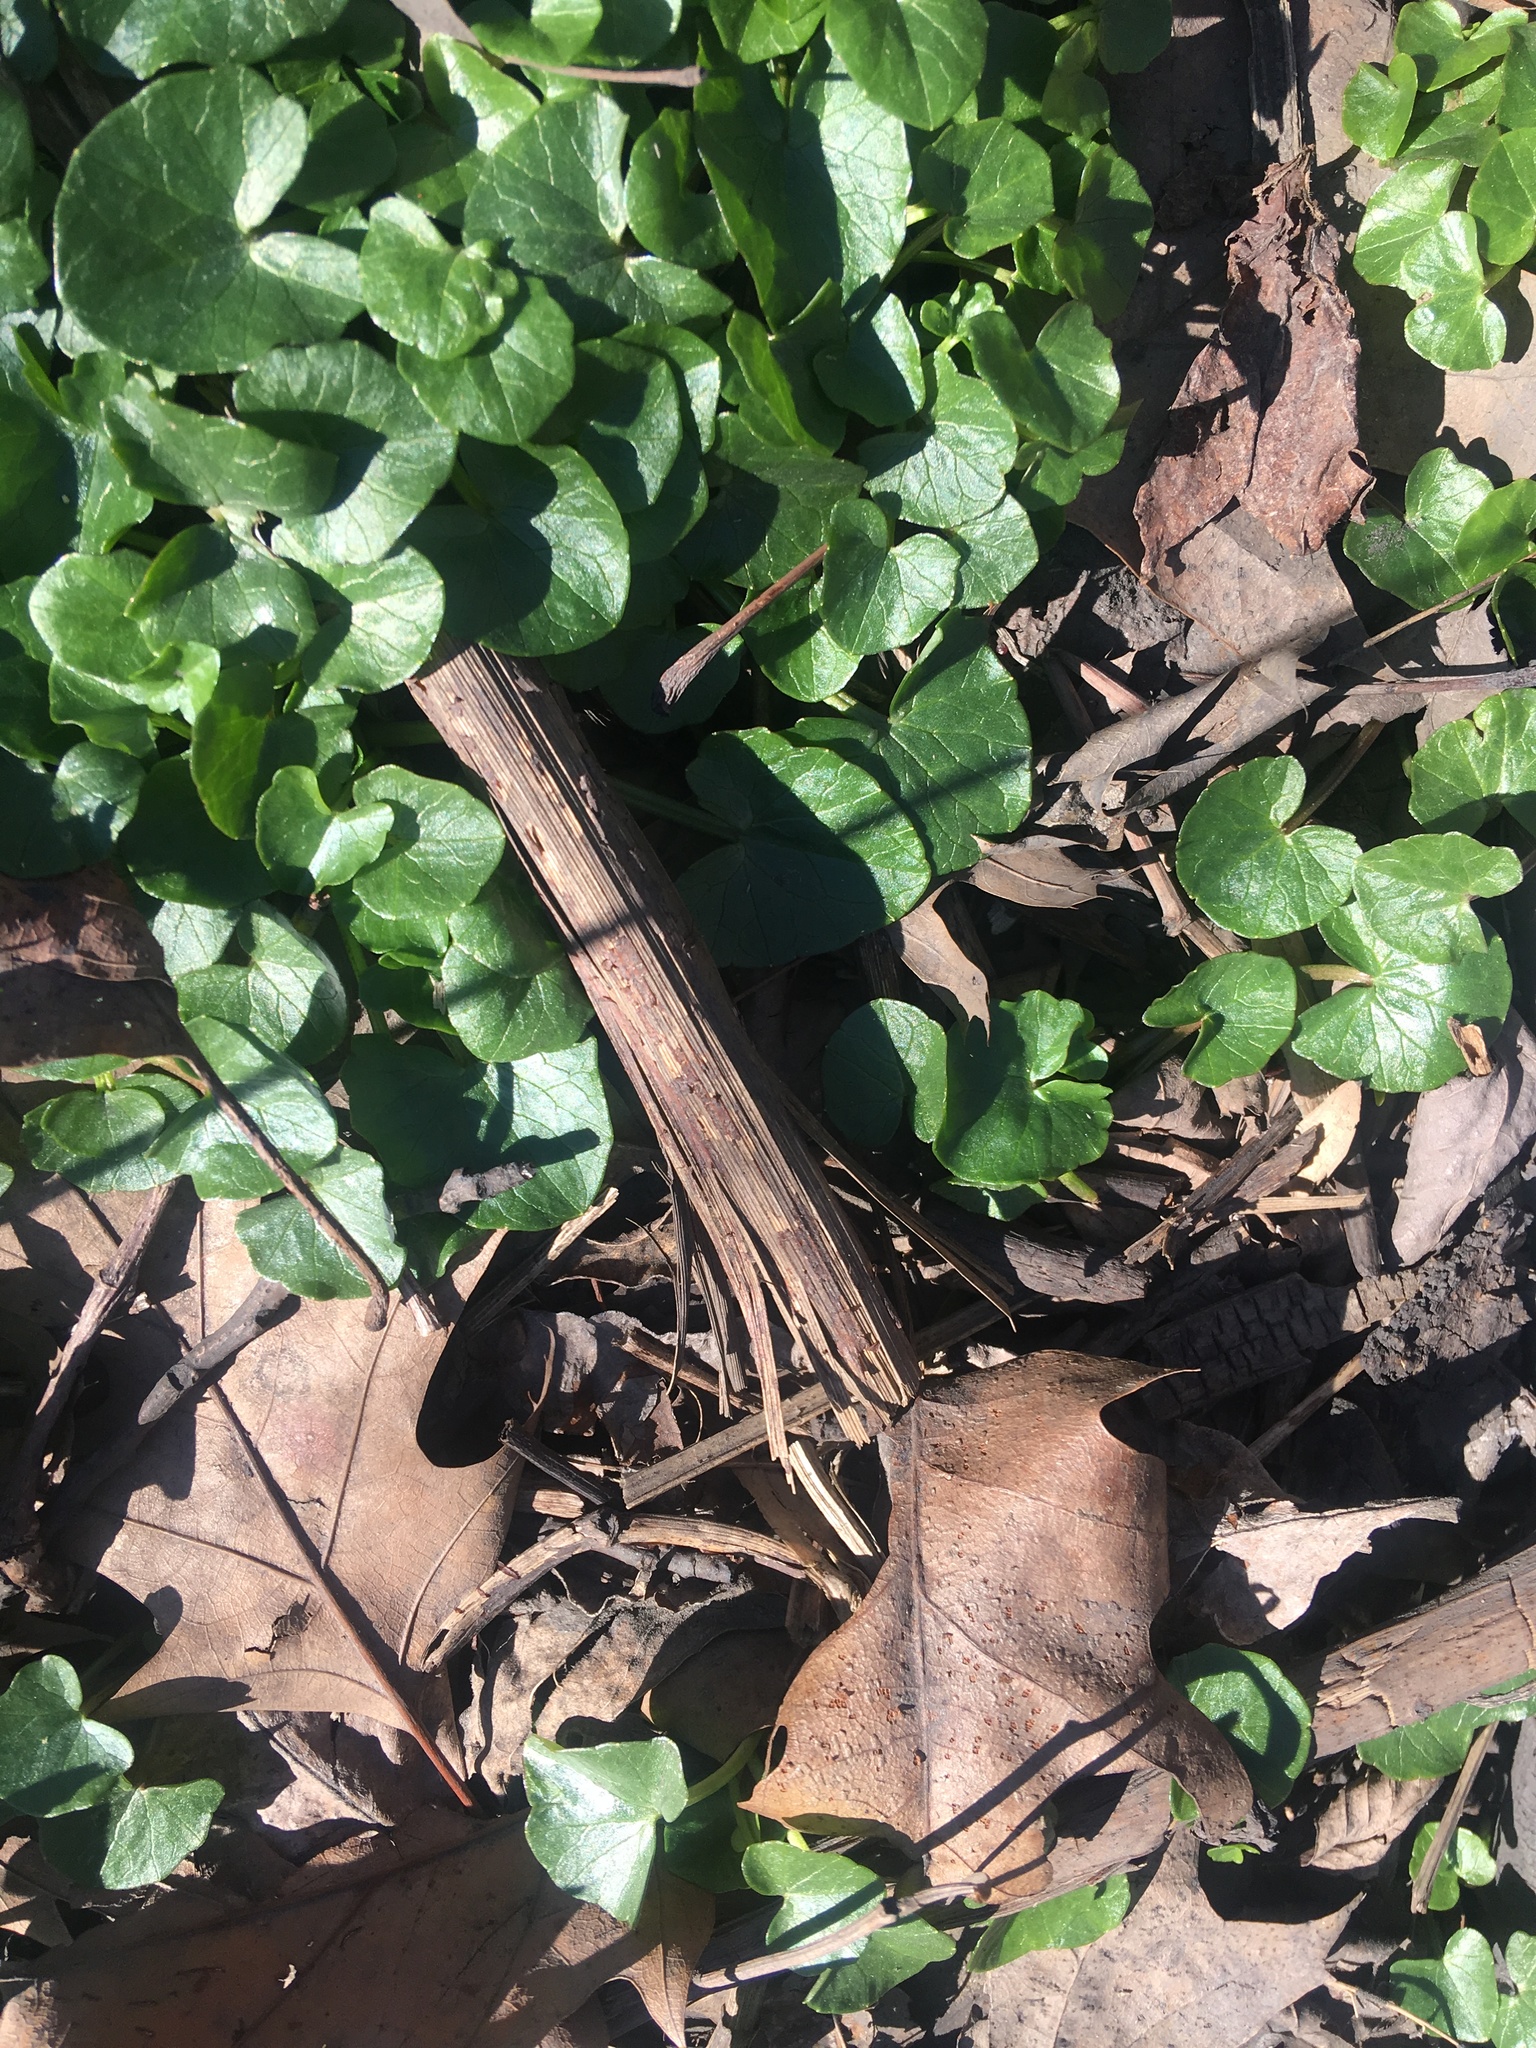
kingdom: Plantae
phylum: Tracheophyta
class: Magnoliopsida
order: Ranunculales
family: Ranunculaceae
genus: Ficaria
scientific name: Ficaria verna
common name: Lesser celandine
